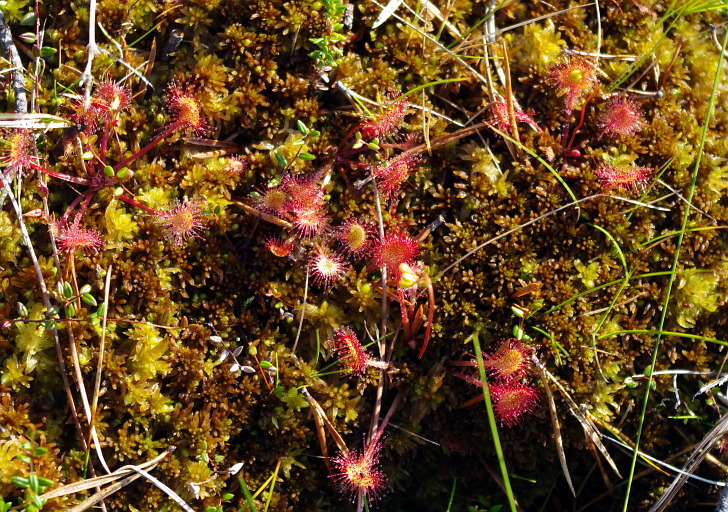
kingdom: Plantae
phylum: Tracheophyta
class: Magnoliopsida
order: Caryophyllales
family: Droseraceae
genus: Drosera
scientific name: Drosera rotundifolia
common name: Round-leaved sundew
